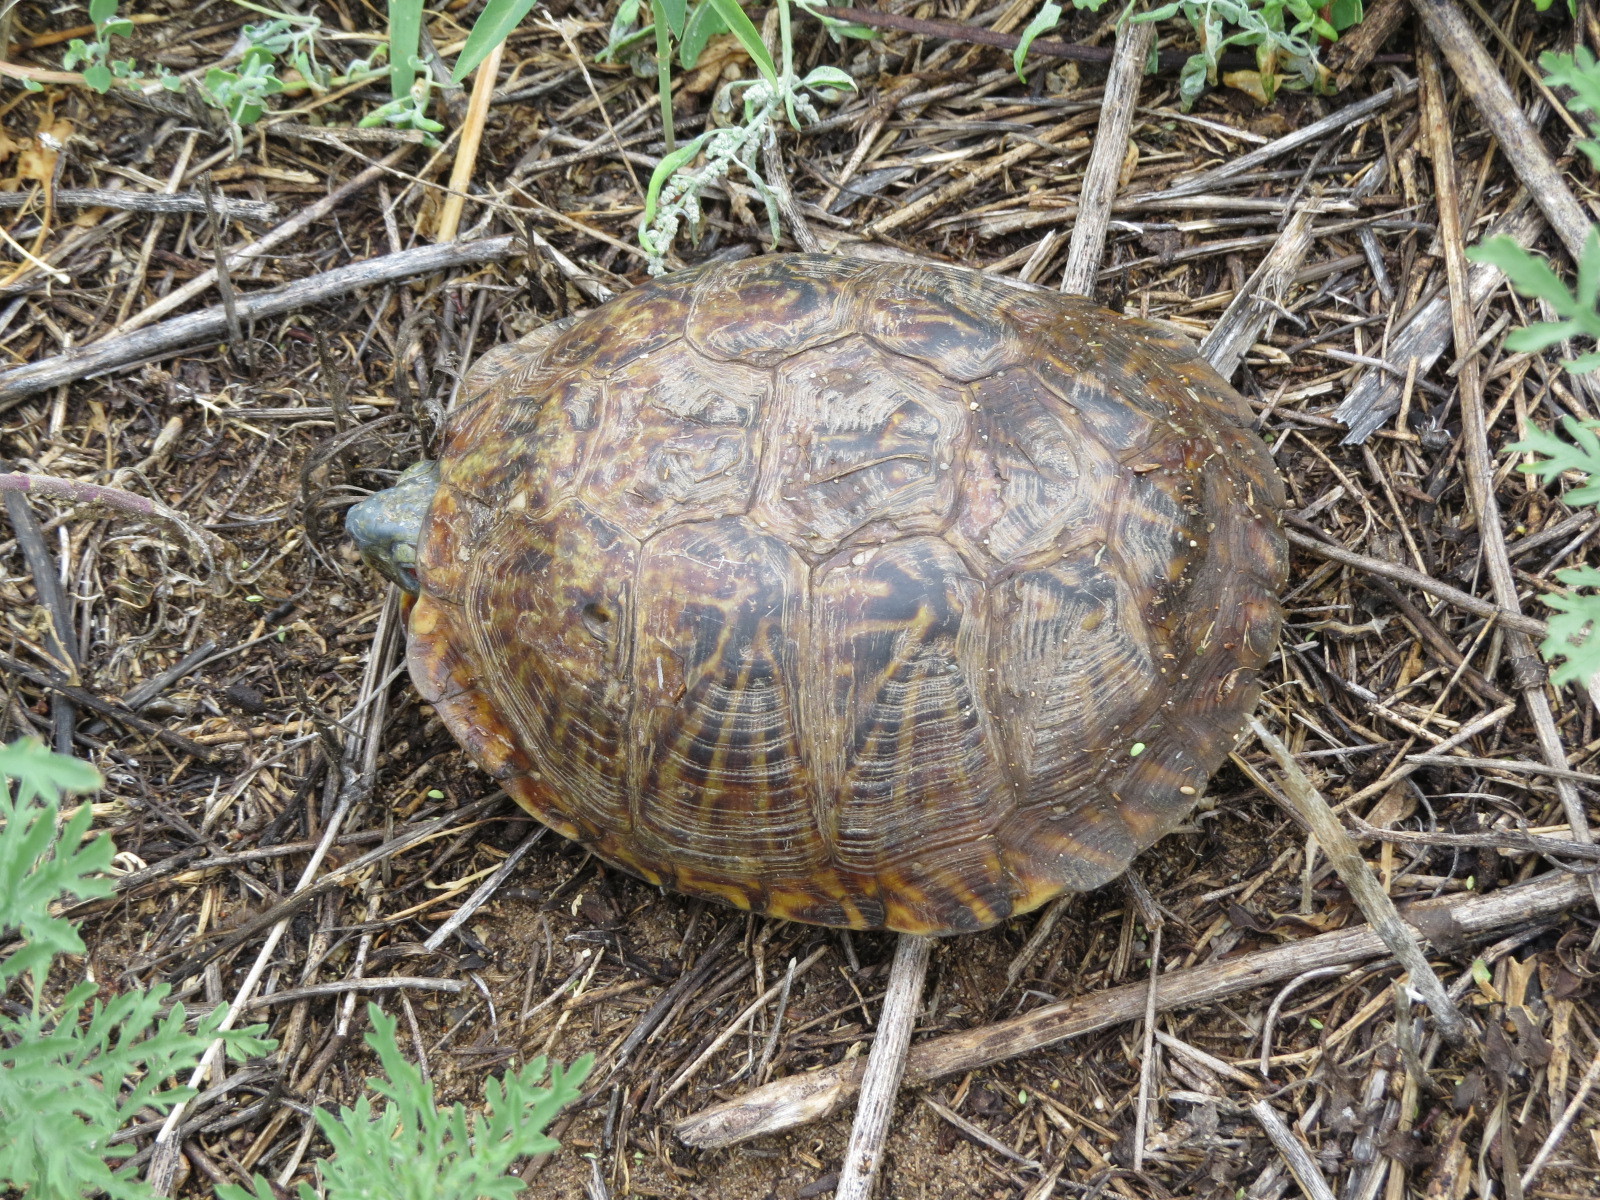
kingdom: Animalia
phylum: Chordata
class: Testudines
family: Emydidae
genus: Terrapene
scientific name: Terrapene ornata
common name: Western box turtle
